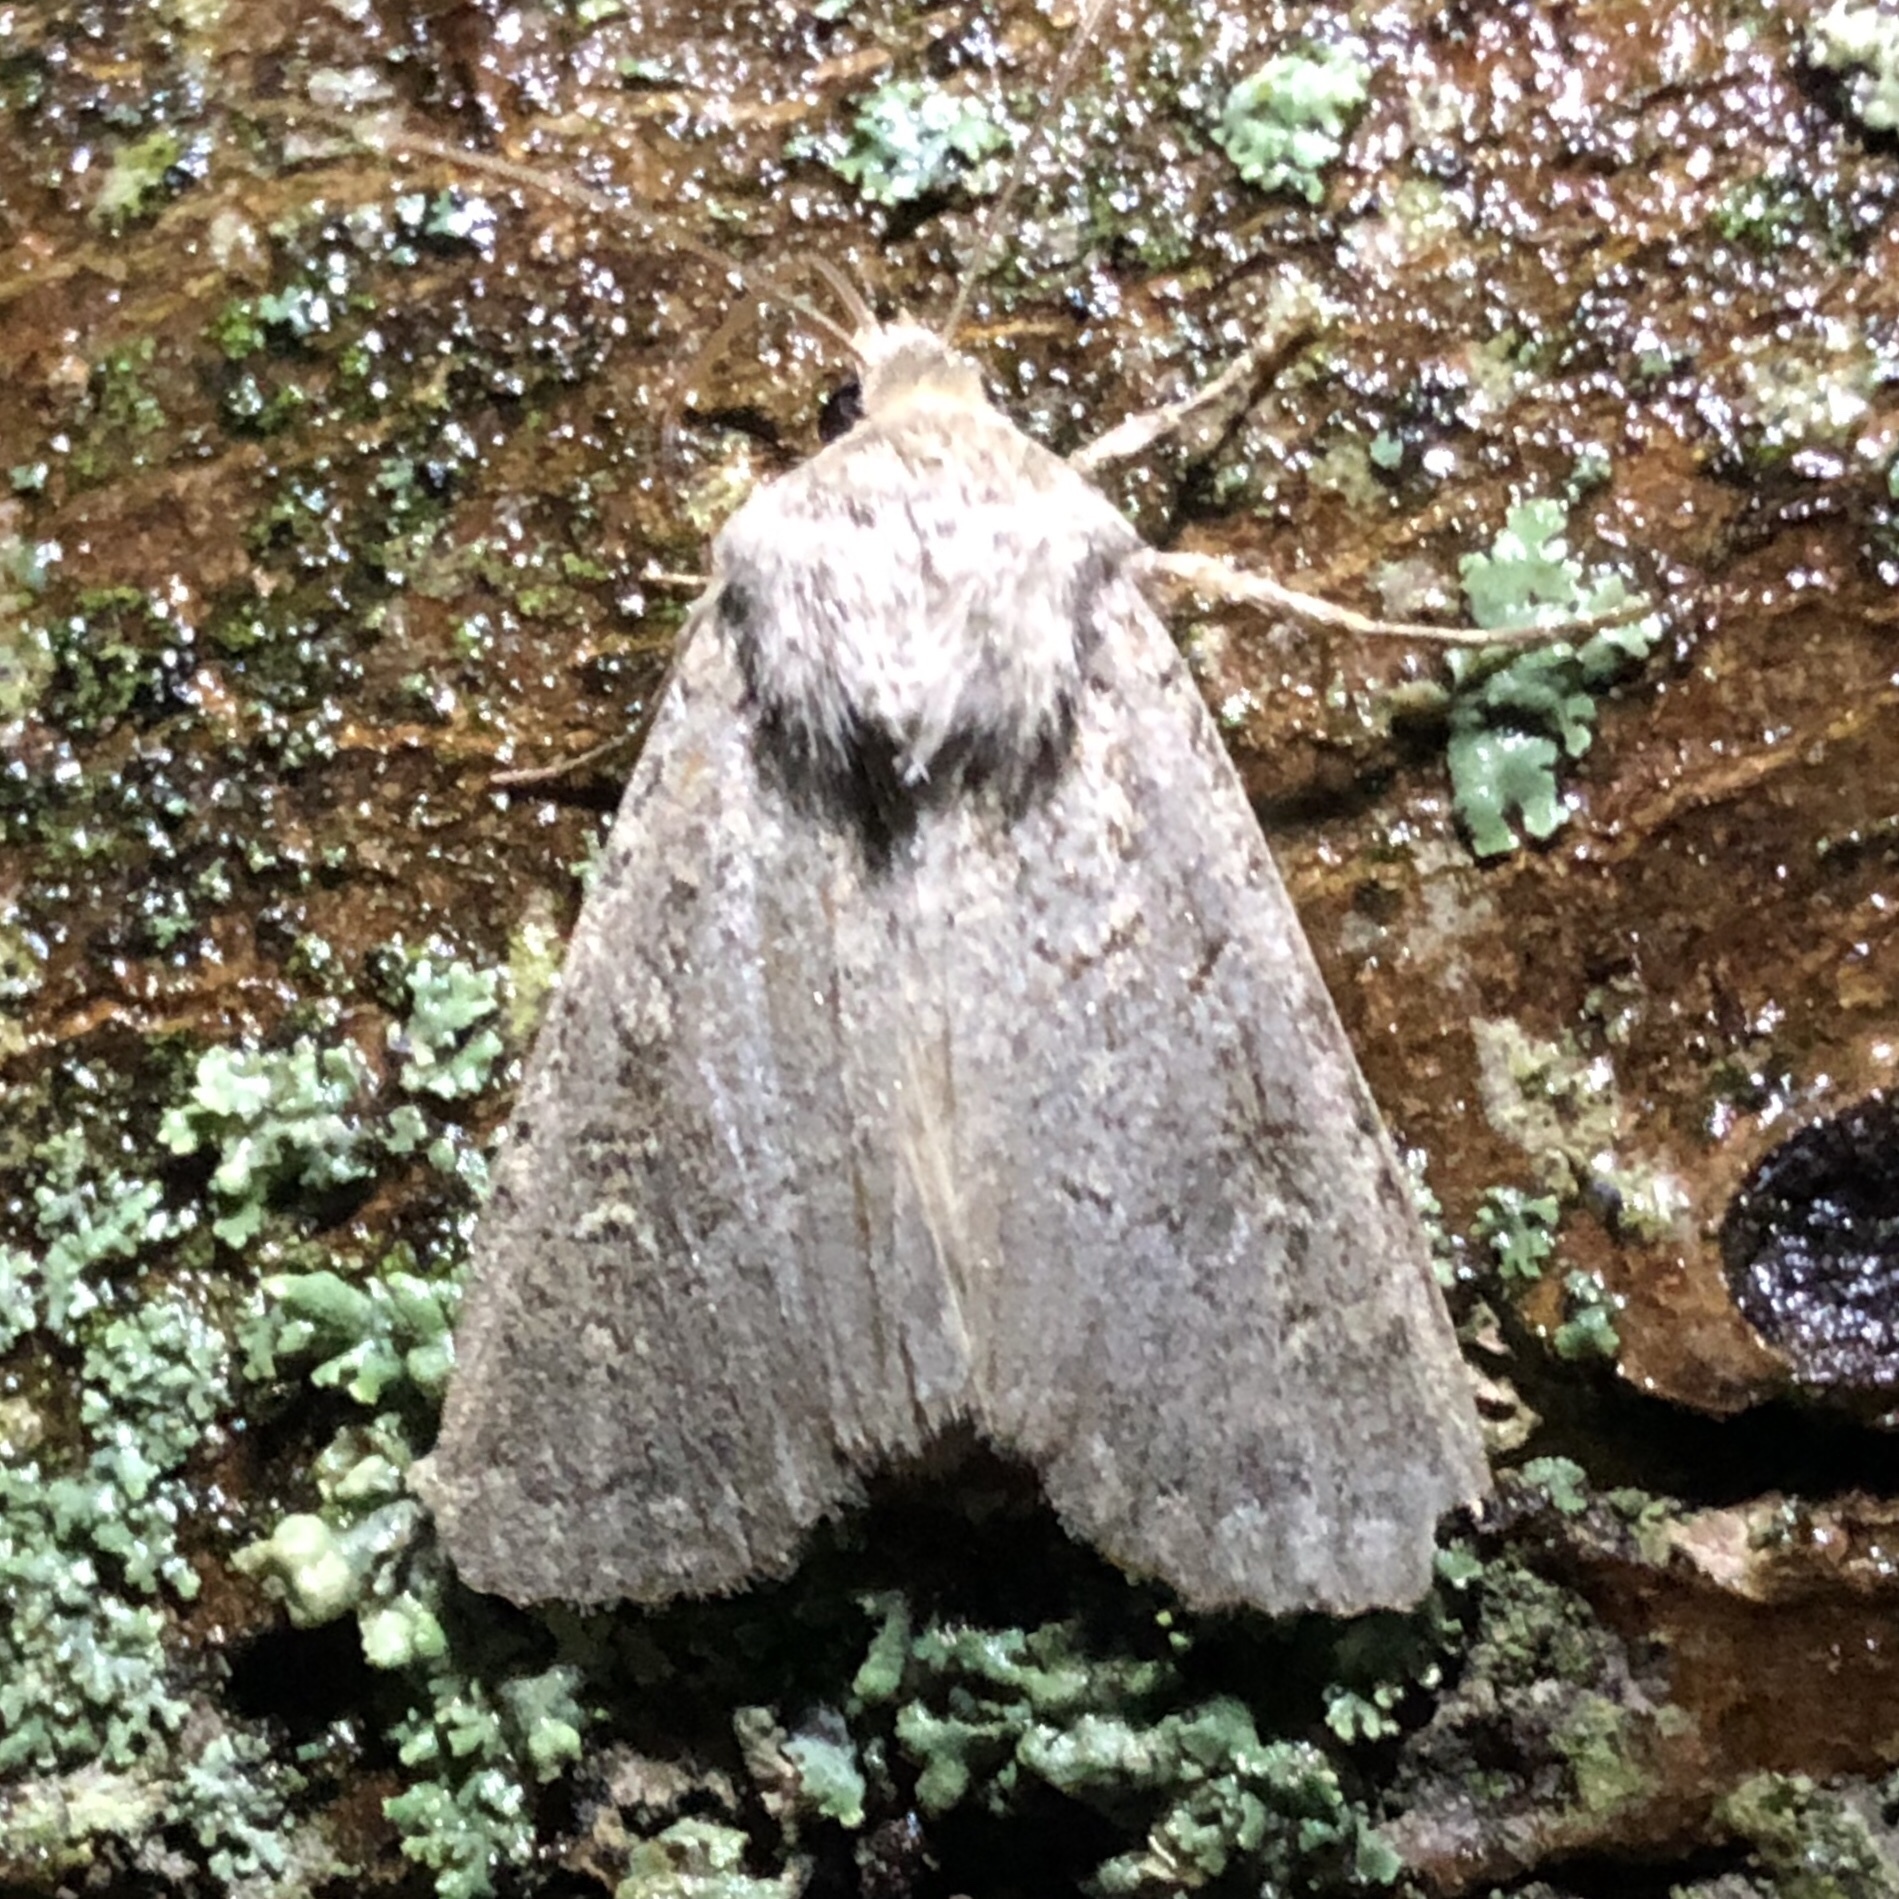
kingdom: Animalia
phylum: Arthropoda
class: Insecta
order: Lepidoptera
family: Noctuidae
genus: Apamea
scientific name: Apamea devastator
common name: Glassy cutworm
